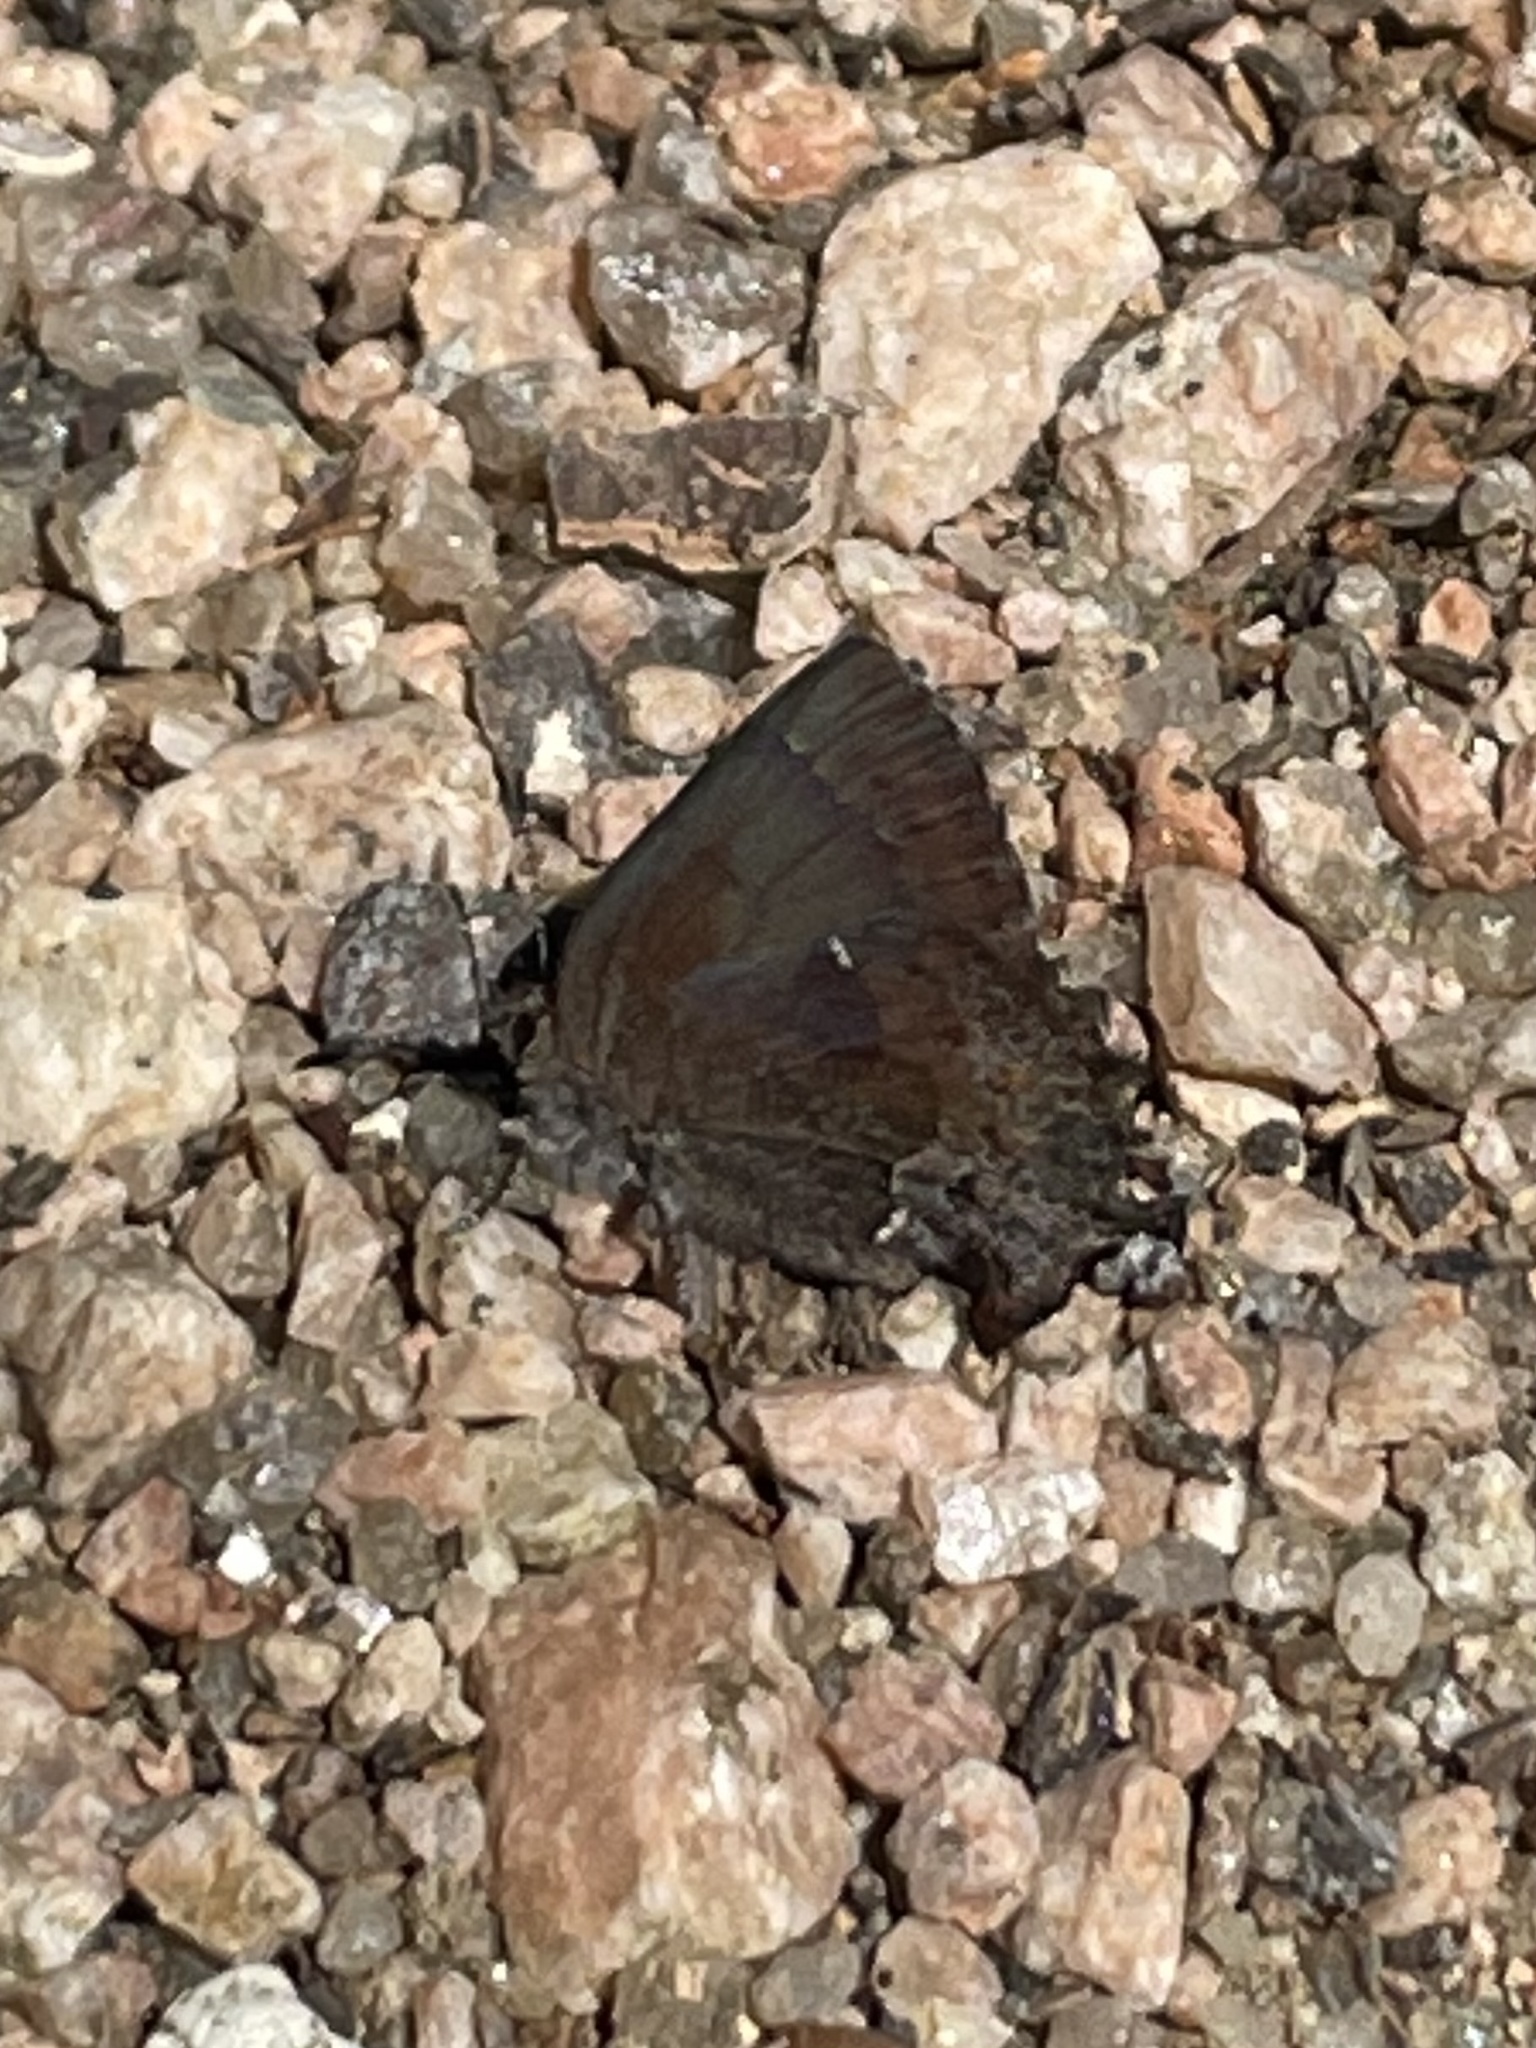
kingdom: Animalia
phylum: Arthropoda
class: Insecta
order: Lepidoptera
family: Lycaenidae
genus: Incisalia
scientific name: Incisalia henrici
